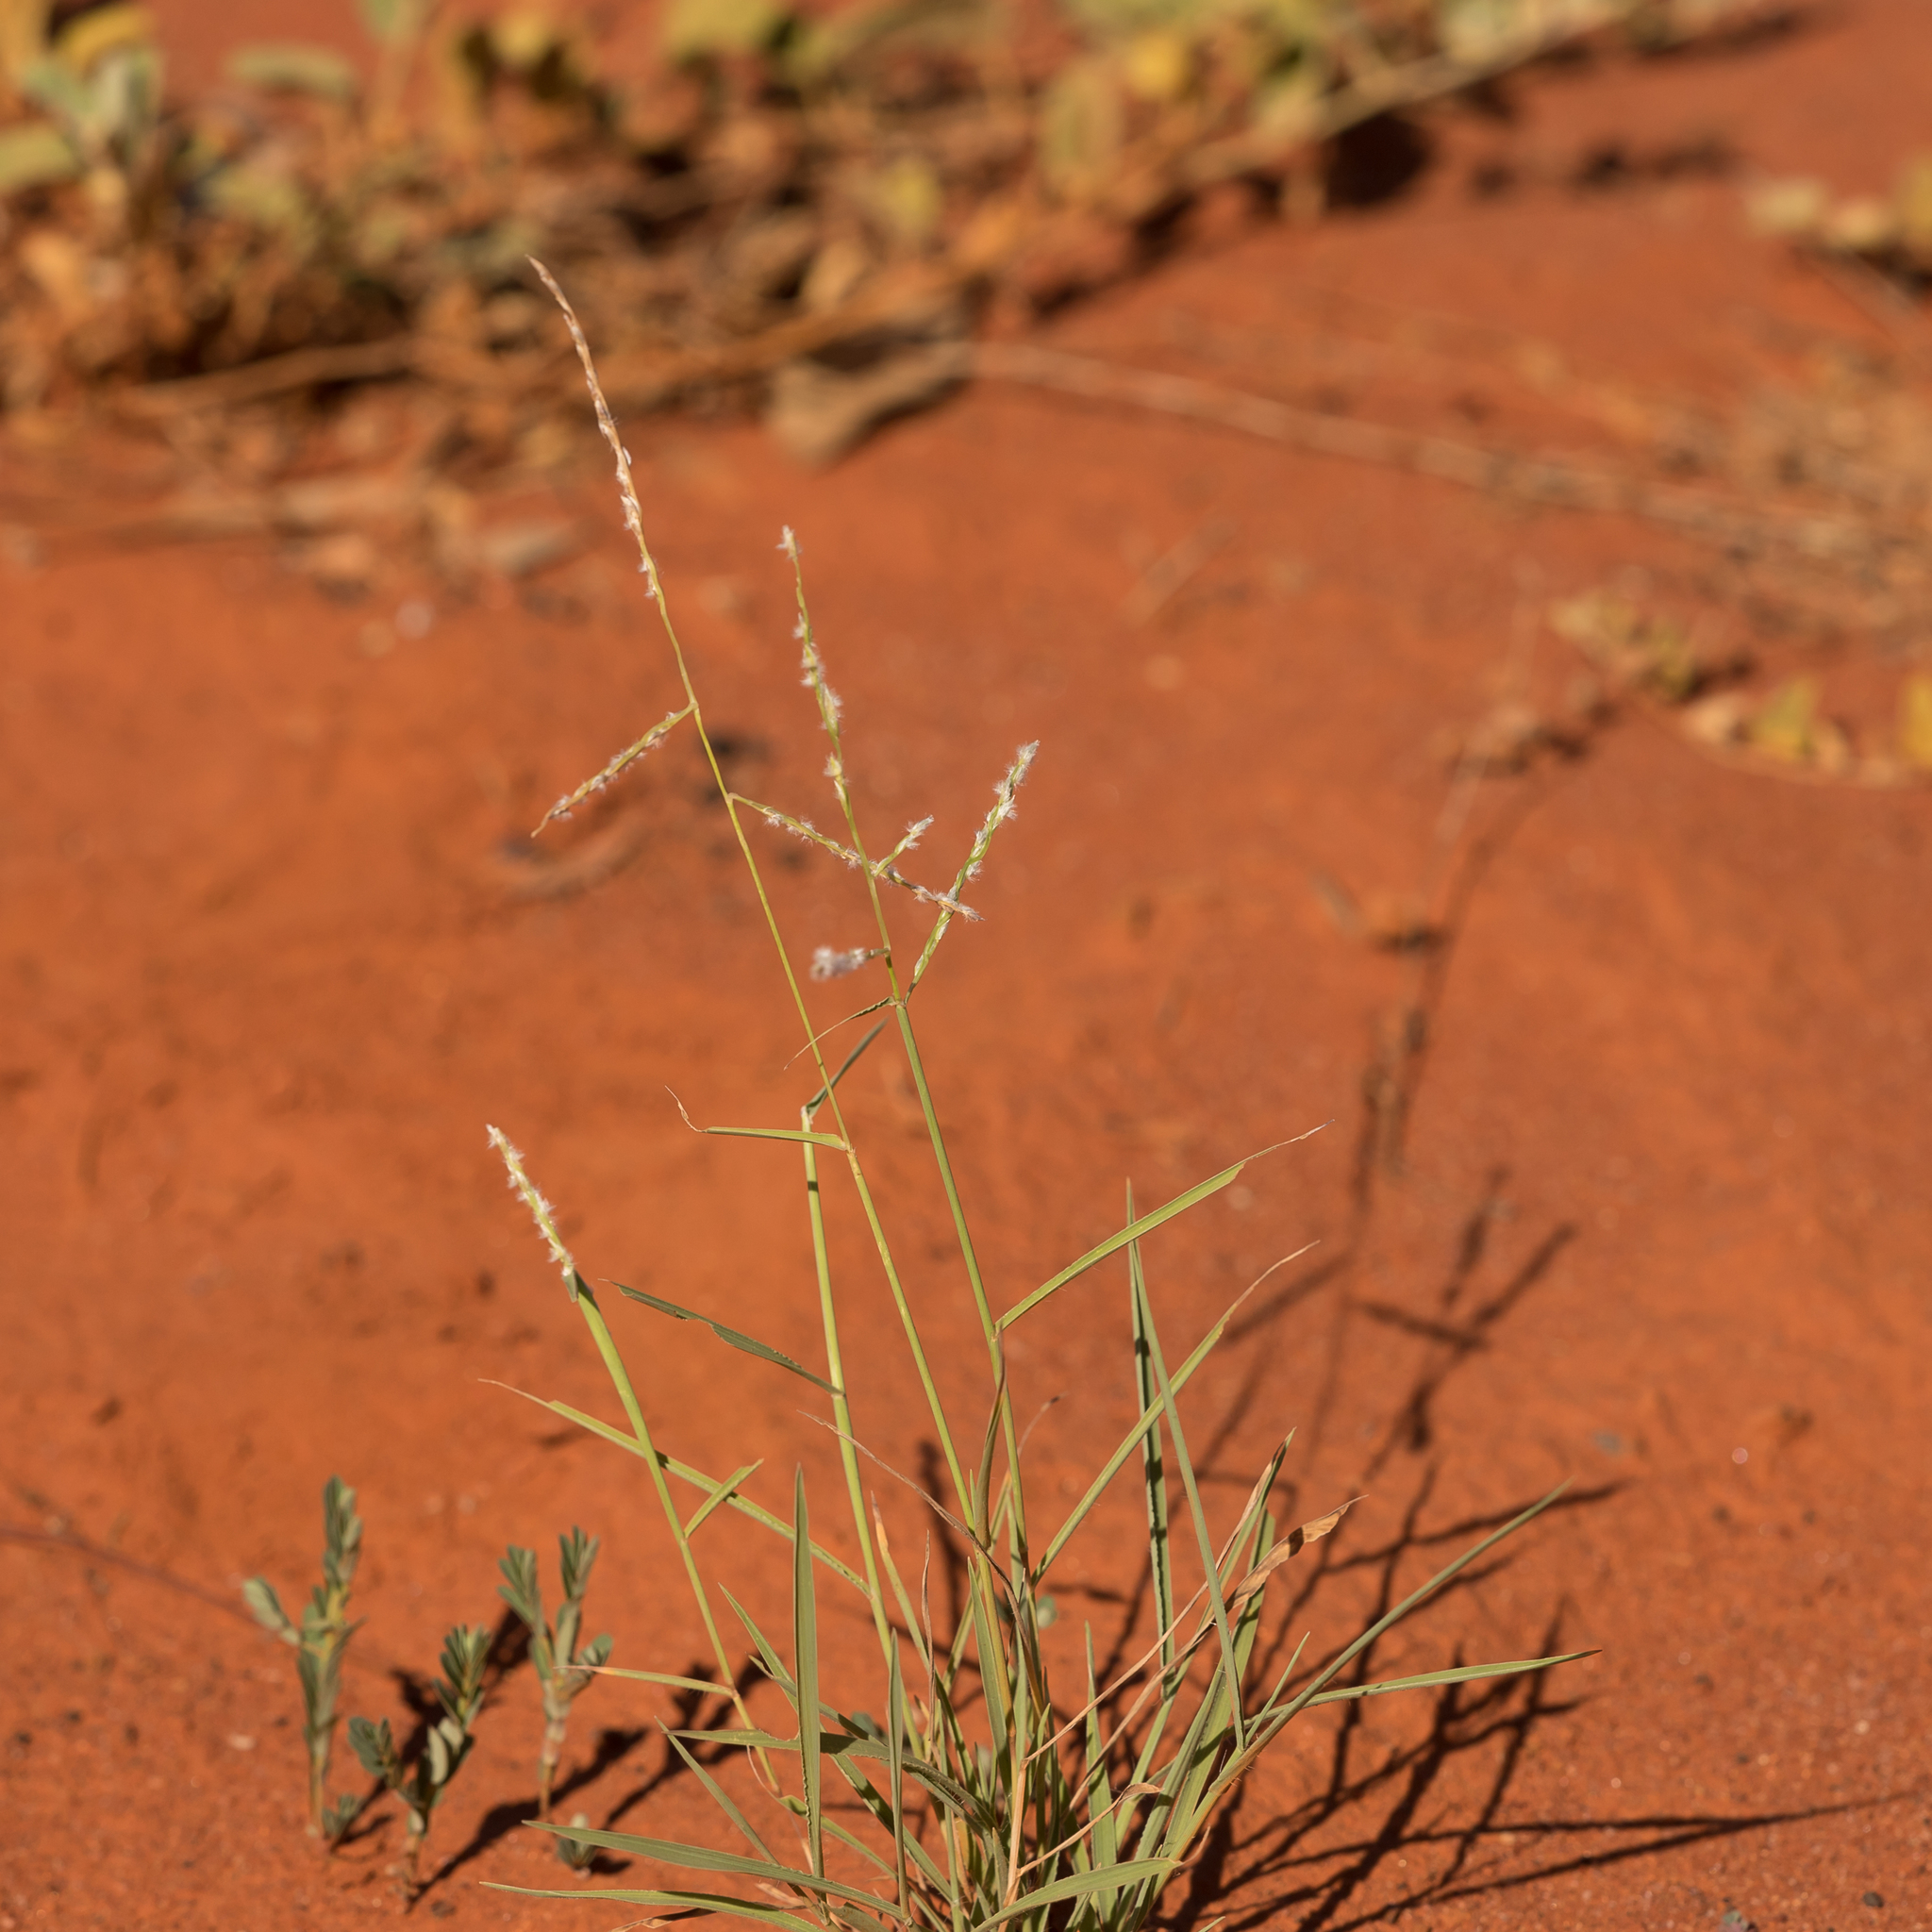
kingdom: Plantae
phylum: Tracheophyta
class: Liliopsida
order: Poales
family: Poaceae
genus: Digitaria
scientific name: Digitaria hubbardii
